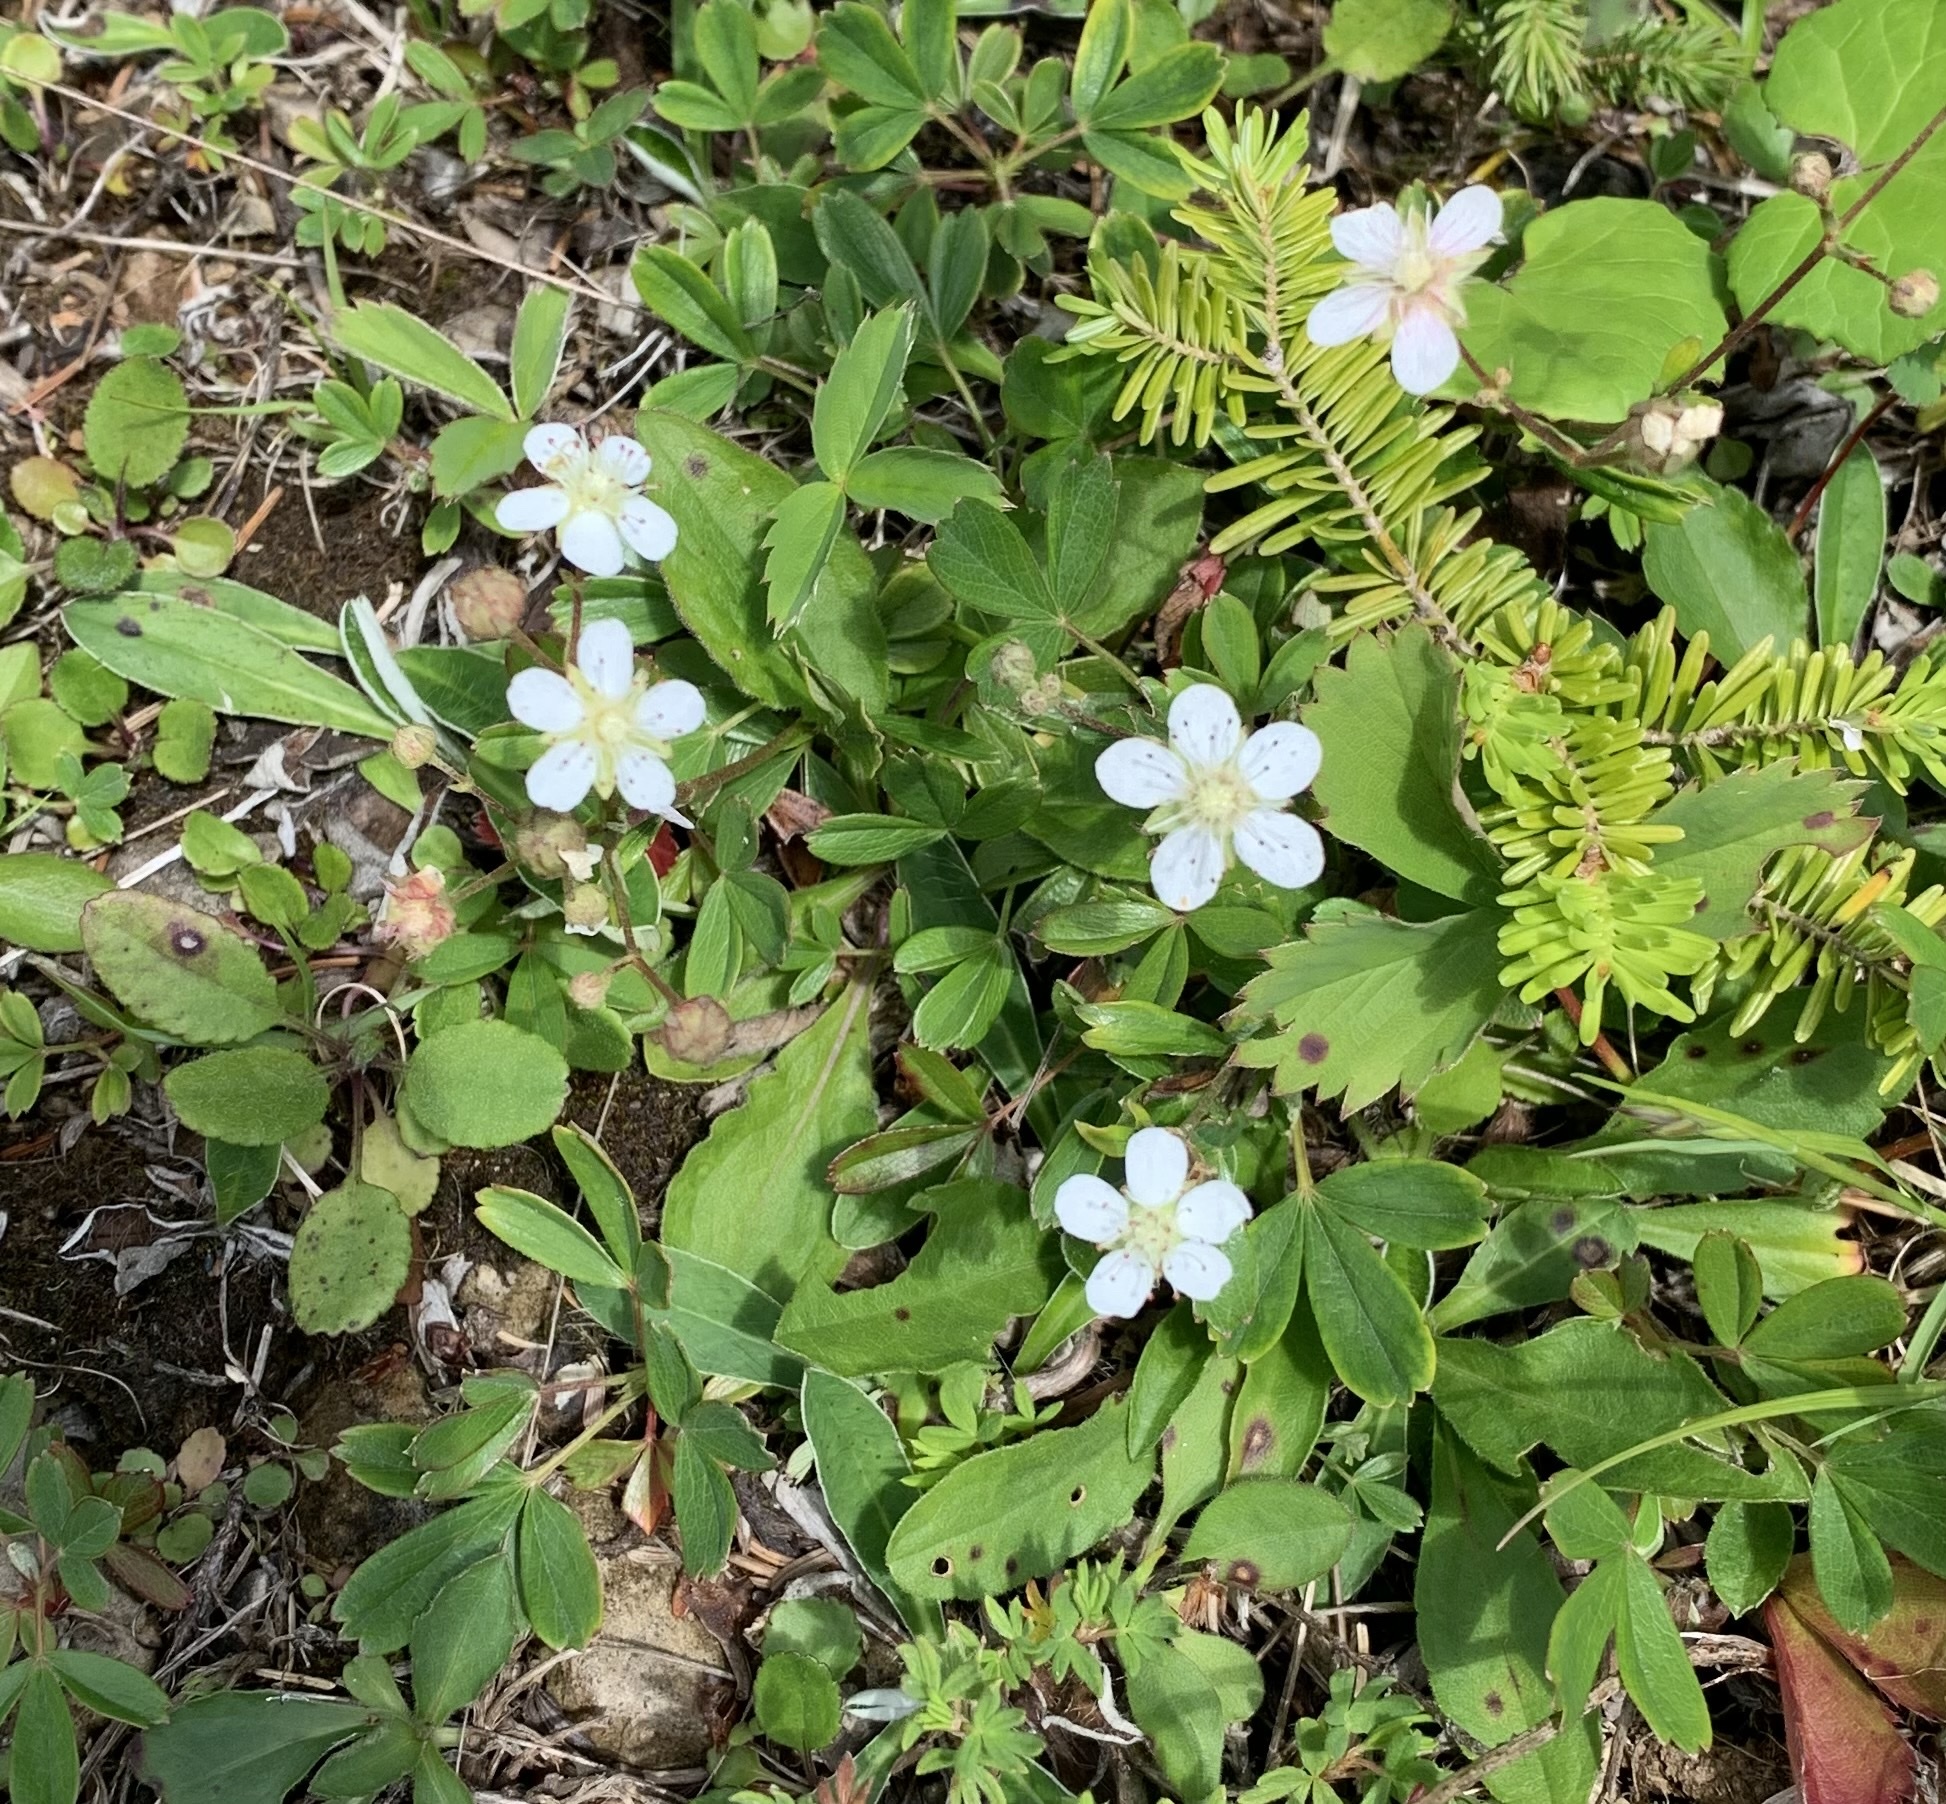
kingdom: Plantae
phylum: Tracheophyta
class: Magnoliopsida
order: Rosales
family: Rosaceae
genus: Sibbaldia
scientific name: Sibbaldia tridentata
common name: Three-toothed cinquefoil
